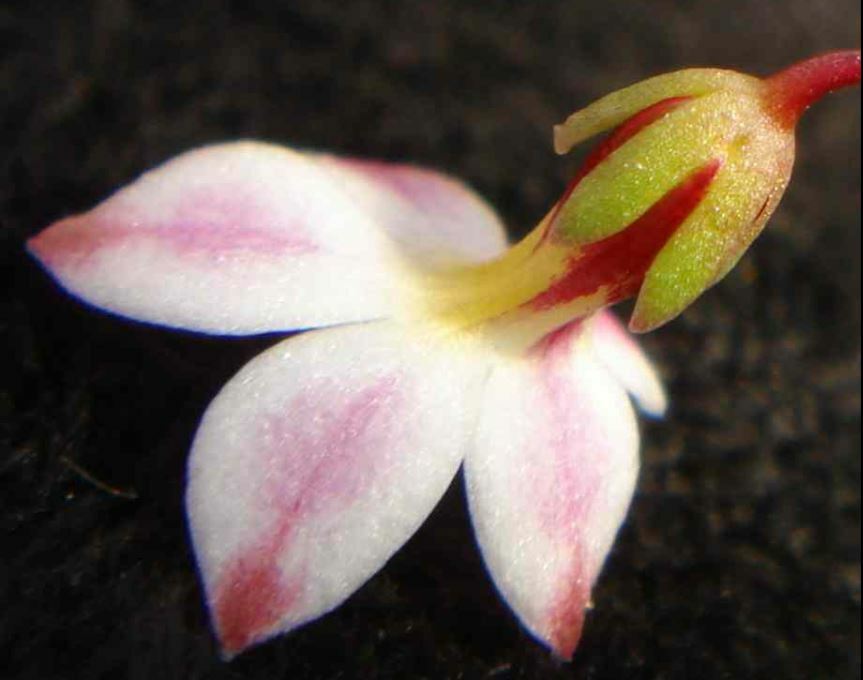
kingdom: Plantae
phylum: Tracheophyta
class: Magnoliopsida
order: Asterales
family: Campanulaceae
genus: Nemacladus
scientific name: Nemacladus longiflorus
